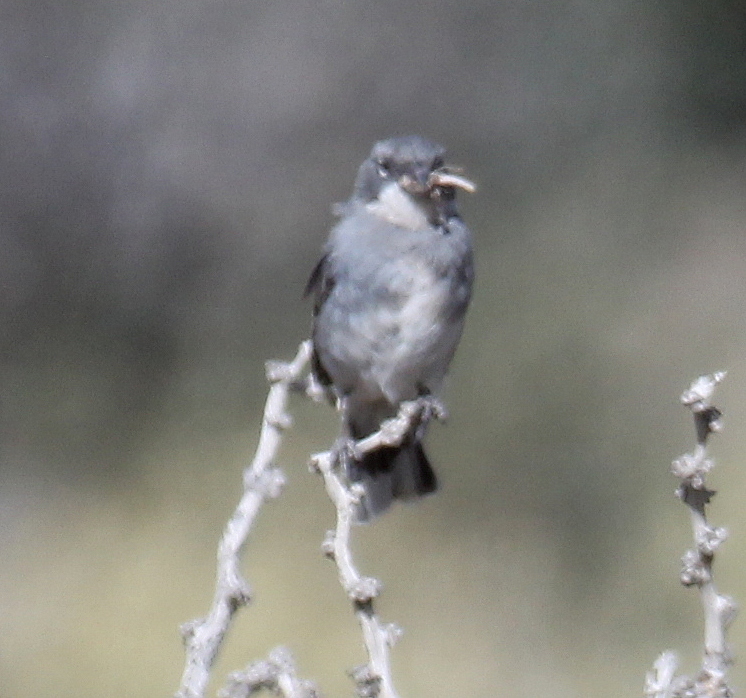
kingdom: Animalia
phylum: Chordata
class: Aves
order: Passeriformes
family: Thraupidae
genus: Diuca
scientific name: Diuca diuca
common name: Common diuca finch
